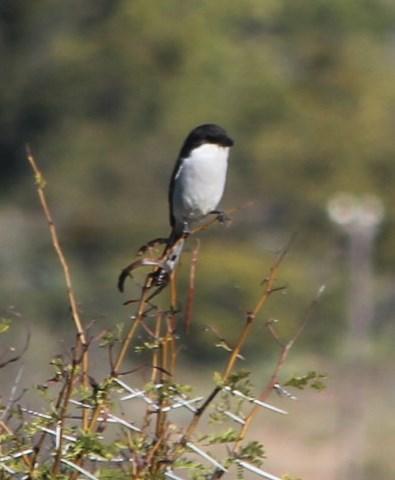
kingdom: Animalia
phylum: Chordata
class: Aves
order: Passeriformes
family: Laniidae
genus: Lanius
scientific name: Lanius collaris
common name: Southern fiscal
